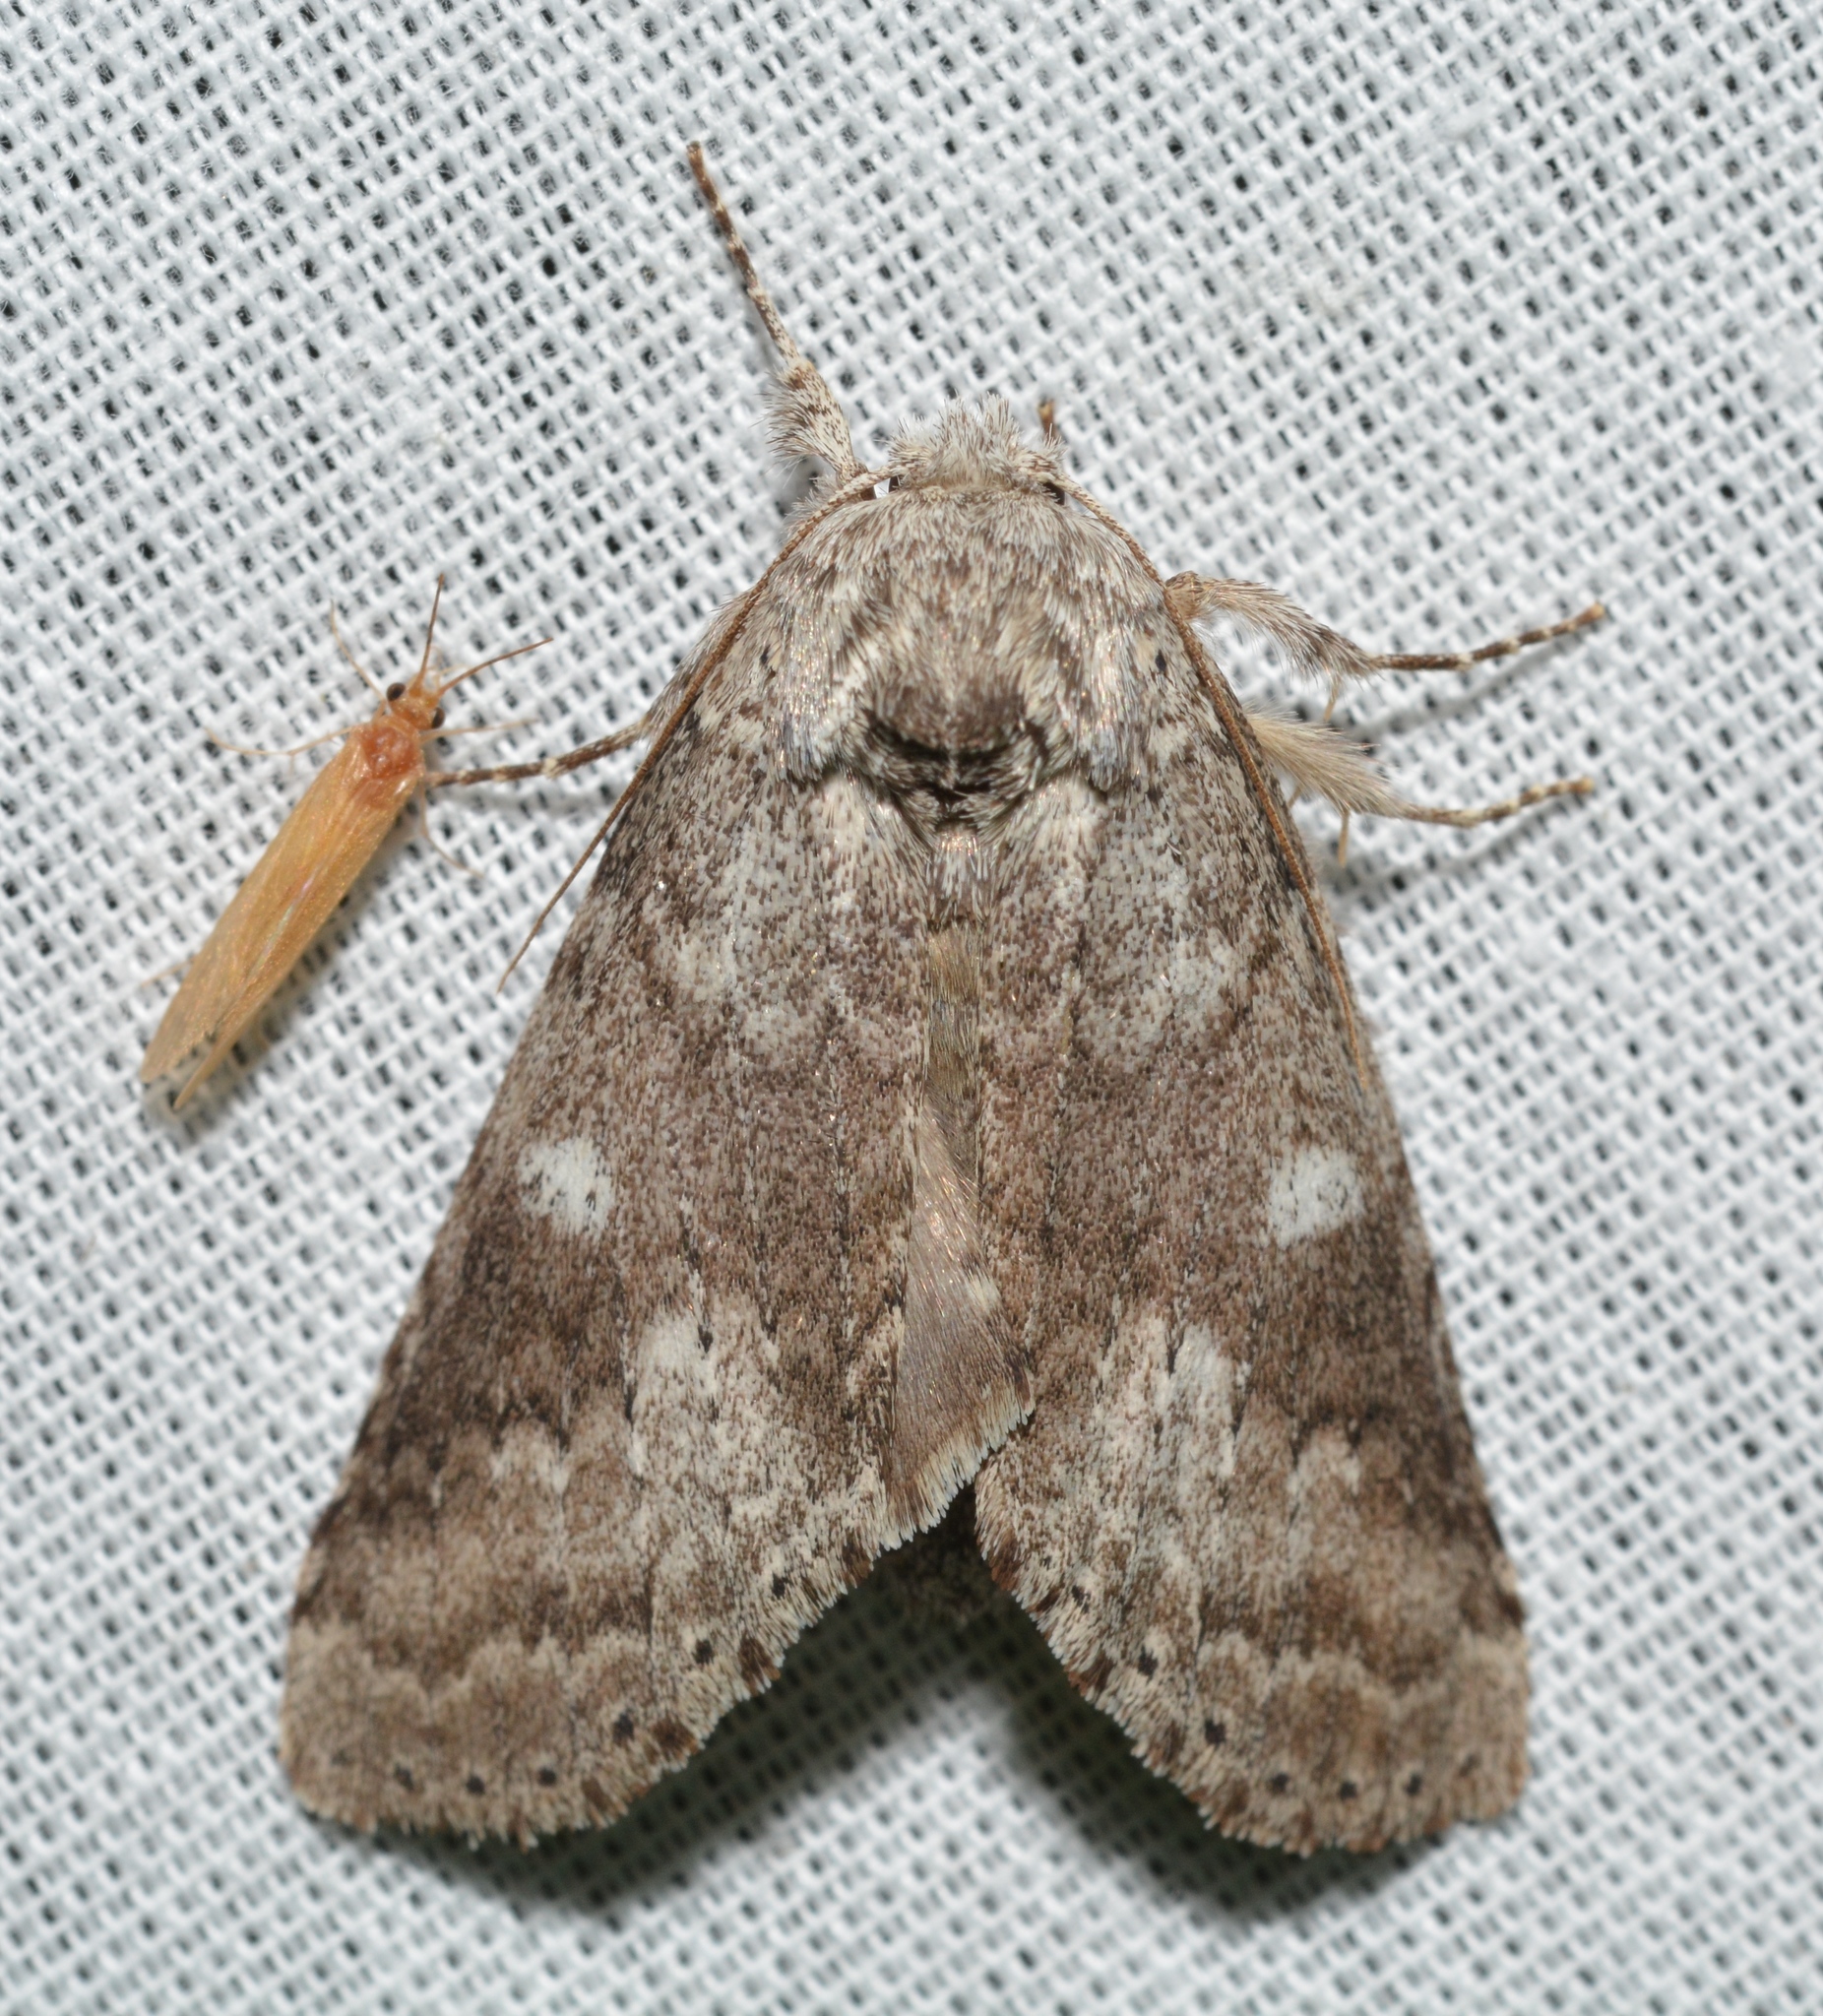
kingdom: Animalia
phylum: Arthropoda
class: Insecta
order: Lepidoptera
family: Notodontidae
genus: Lochmaeus
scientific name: Lochmaeus manteo
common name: Variable oakleaf caterpillar moth
